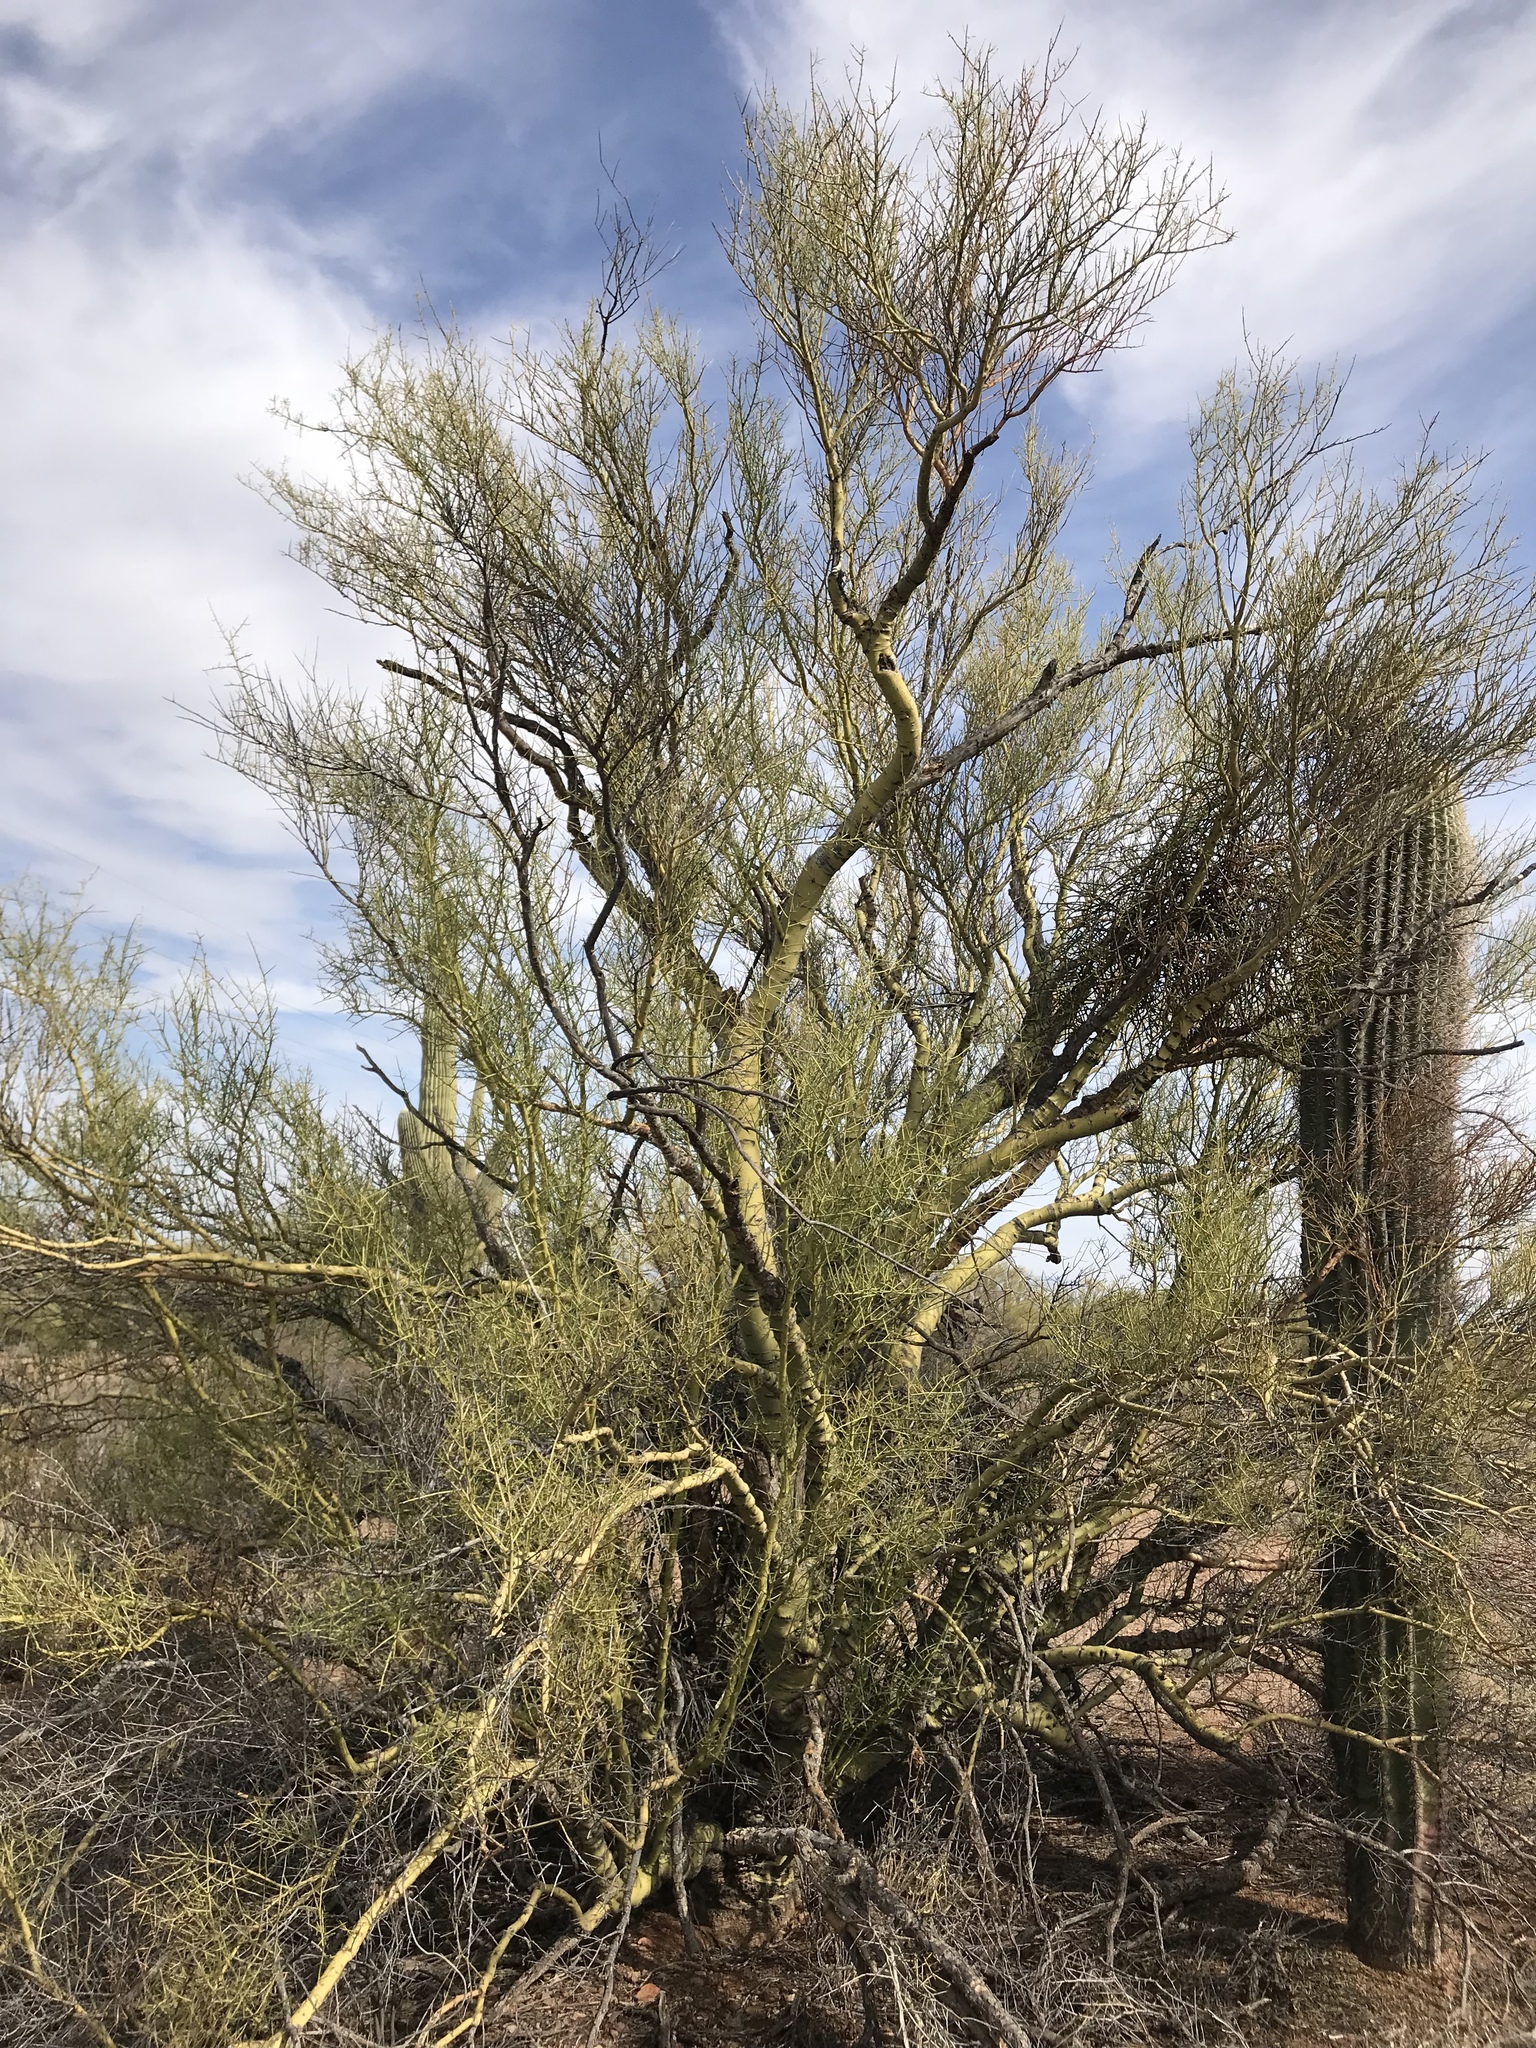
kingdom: Plantae
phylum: Tracheophyta
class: Magnoliopsida
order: Fabales
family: Fabaceae
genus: Parkinsonia
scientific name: Parkinsonia microphylla
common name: Yellow paloverde
